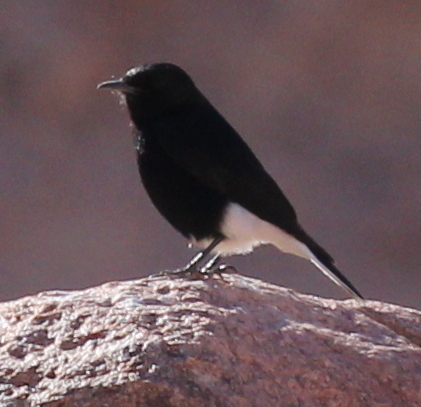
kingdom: Animalia
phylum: Chordata
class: Aves
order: Passeriformes
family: Muscicapidae
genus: Oenanthe
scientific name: Oenanthe leucopyga
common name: White-crowned wheatear
